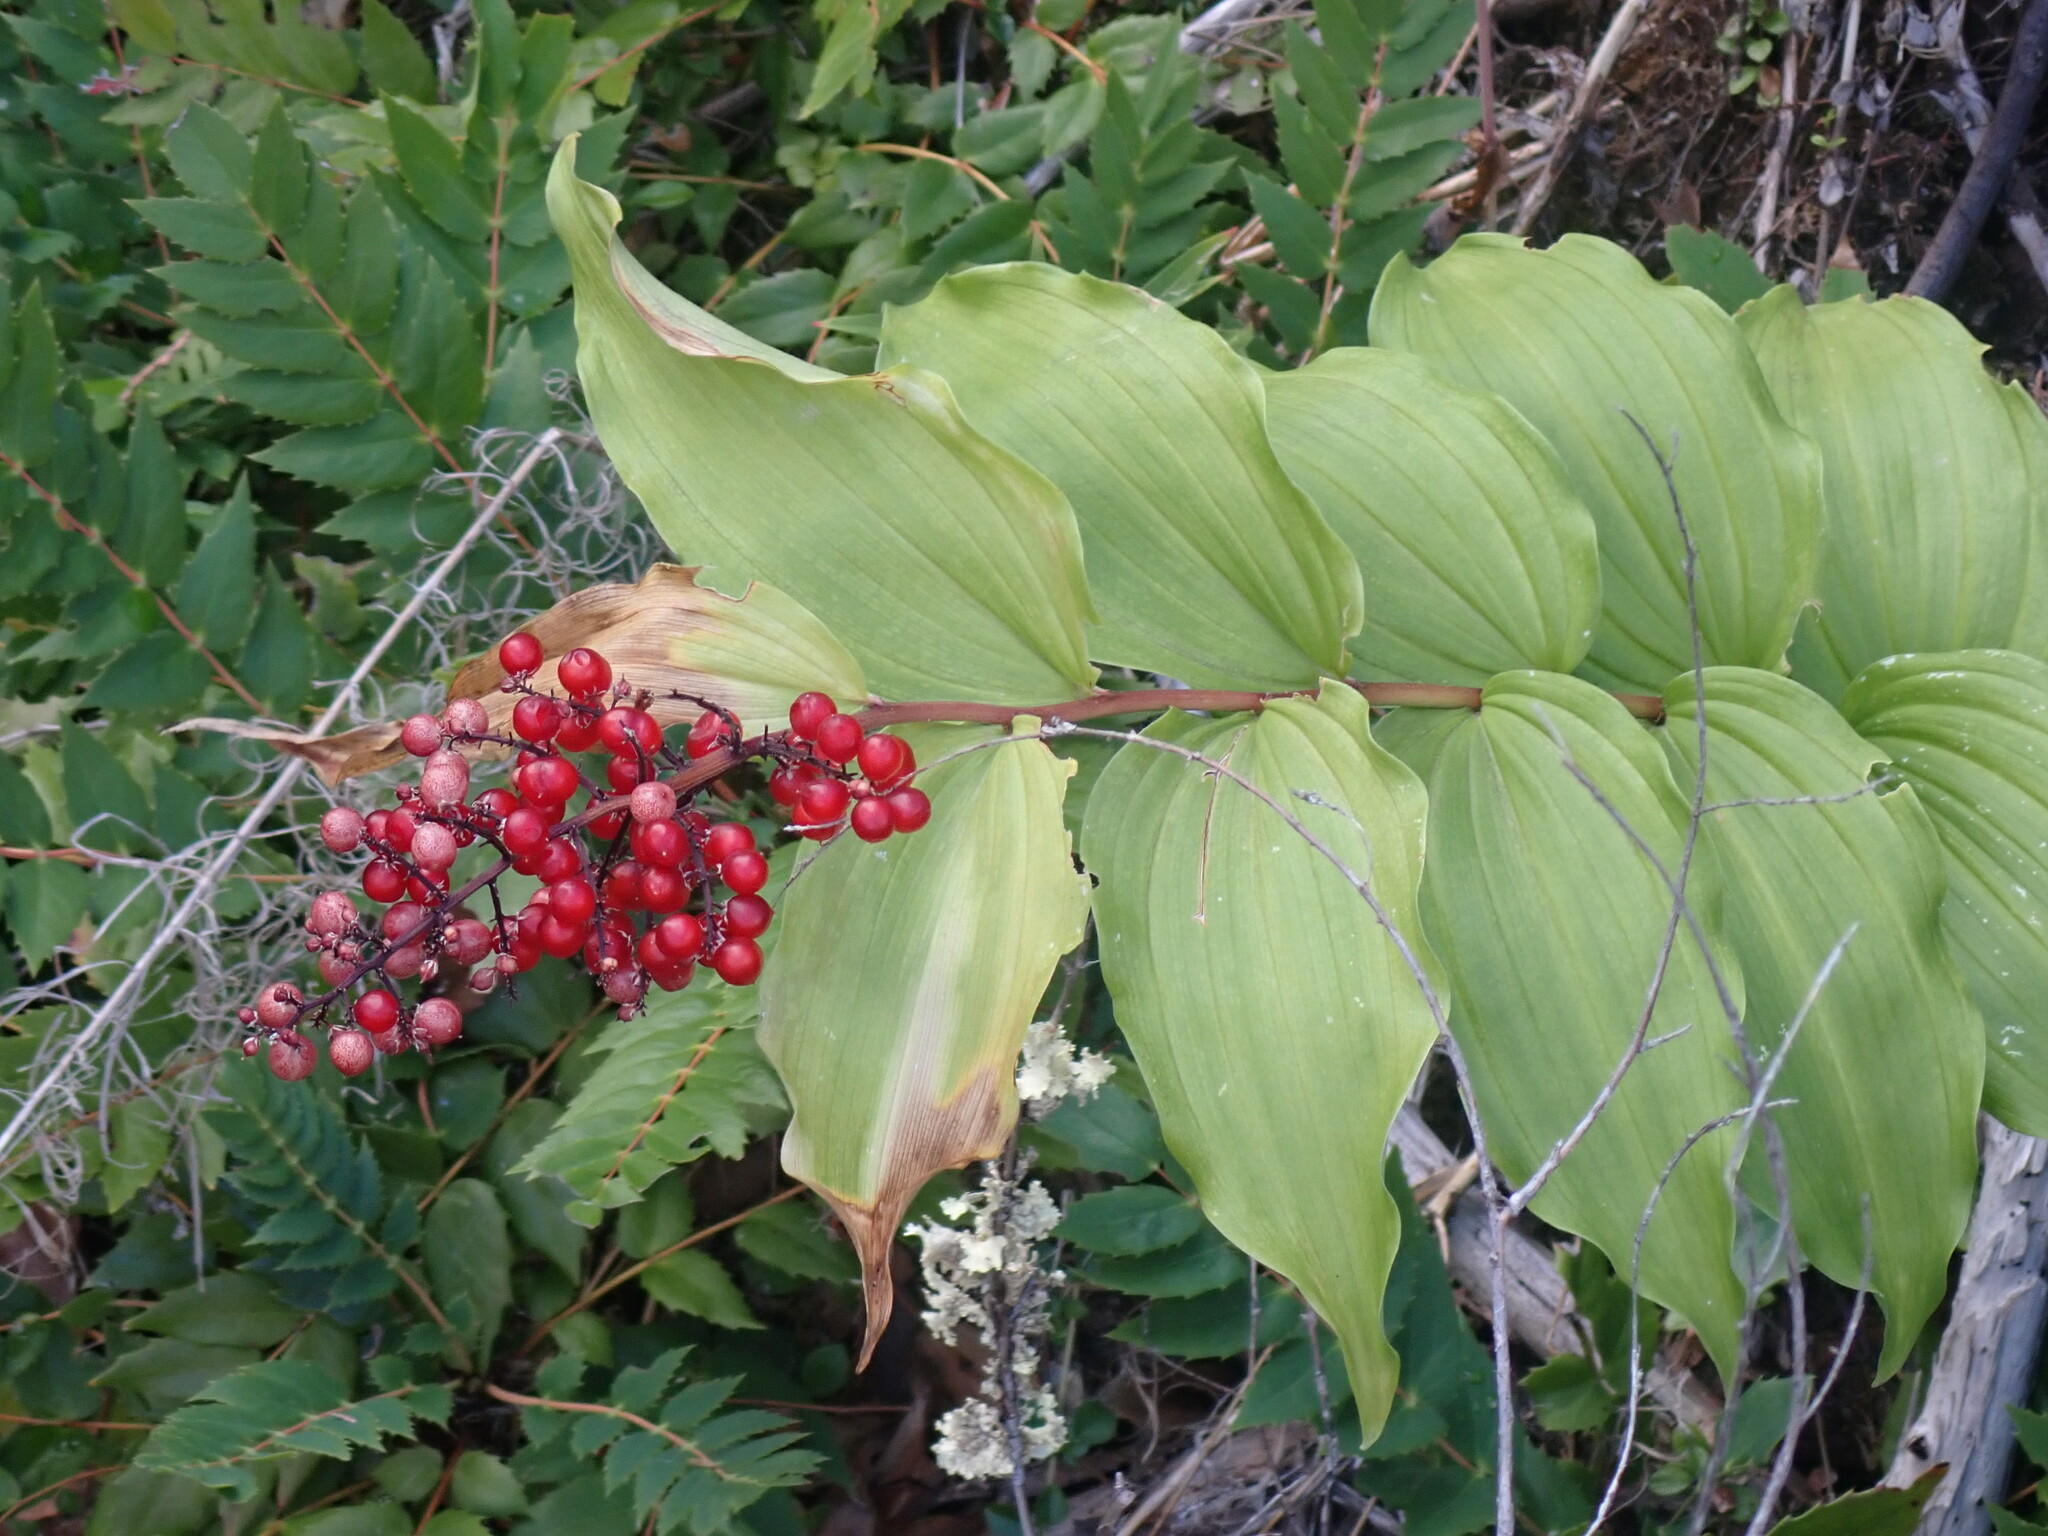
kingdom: Plantae
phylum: Tracheophyta
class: Liliopsida
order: Asparagales
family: Asparagaceae
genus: Maianthemum
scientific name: Maianthemum racemosum
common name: False spikenard
